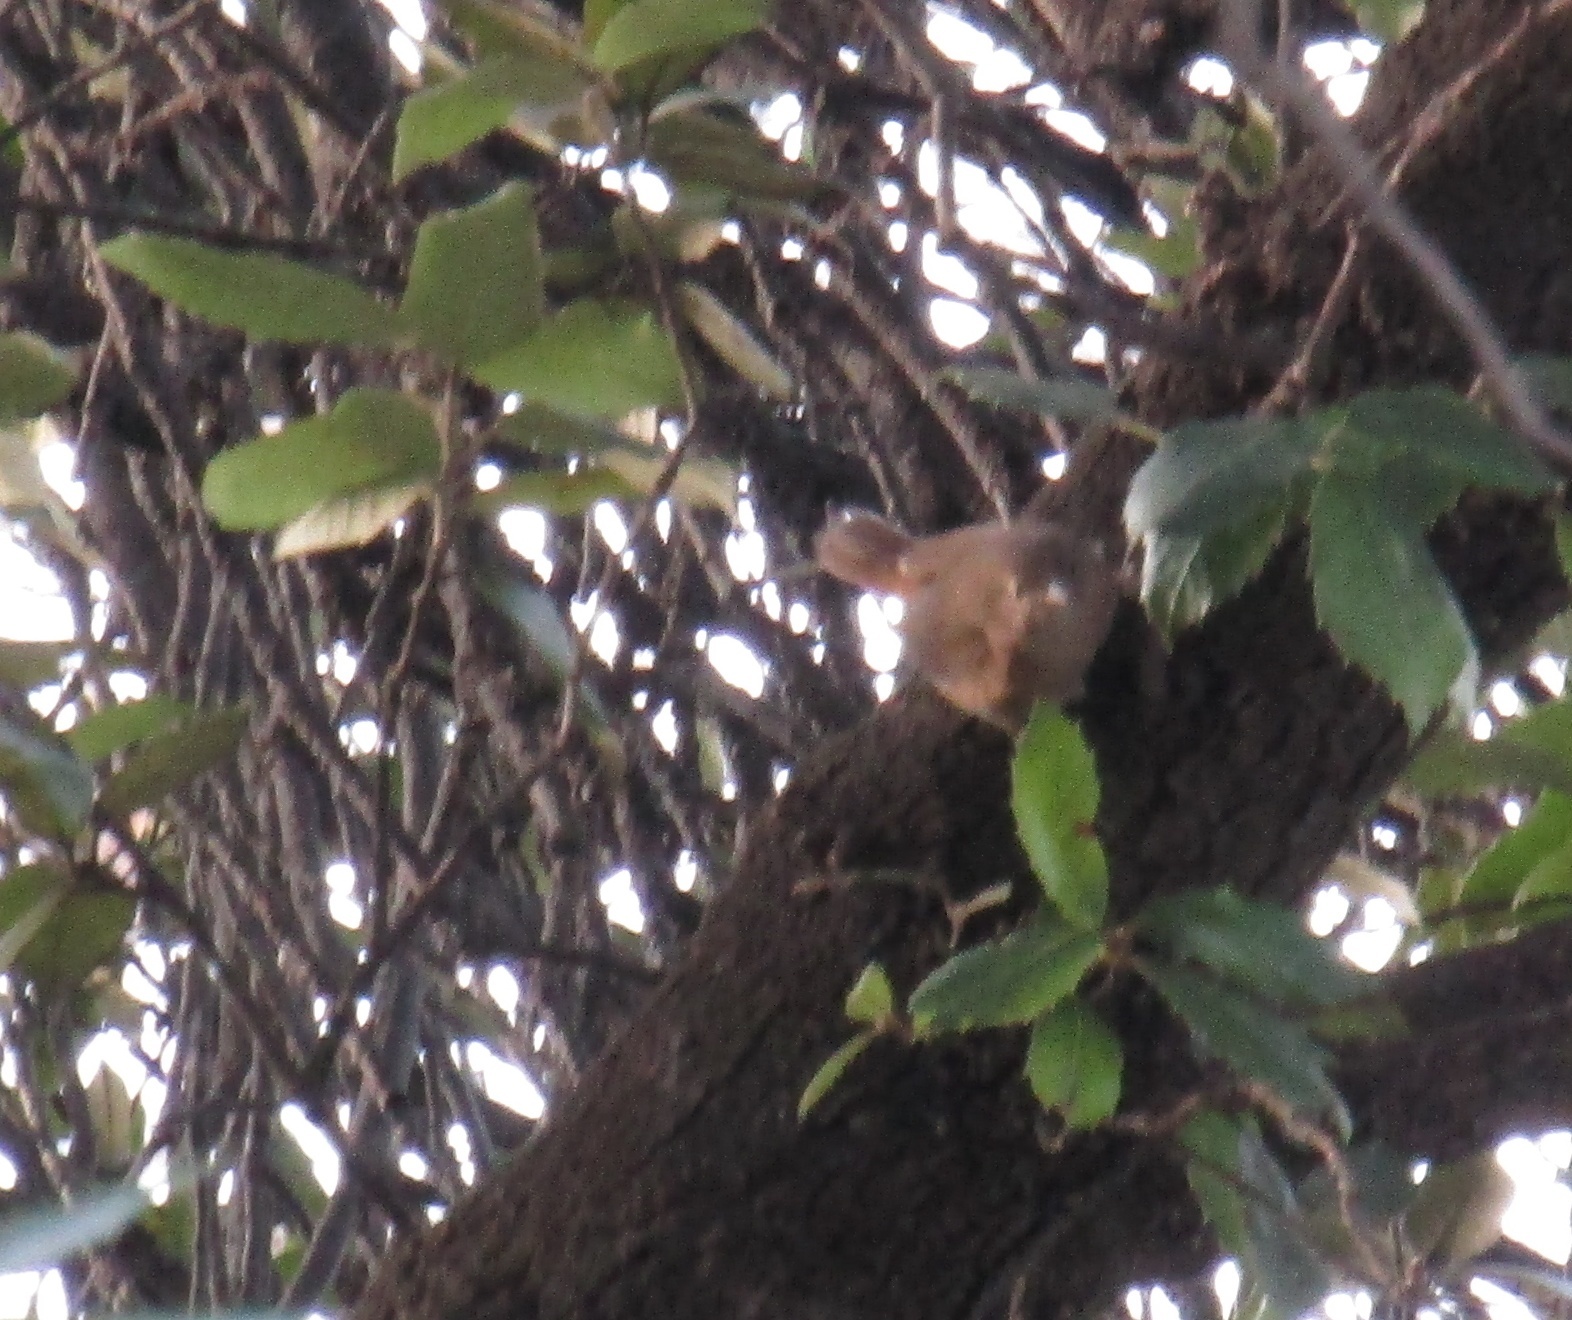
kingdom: Animalia
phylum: Chordata
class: Aves
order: Passeriformes
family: Troglodytidae
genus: Troglodytes
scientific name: Troglodytes aedon
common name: House wren
